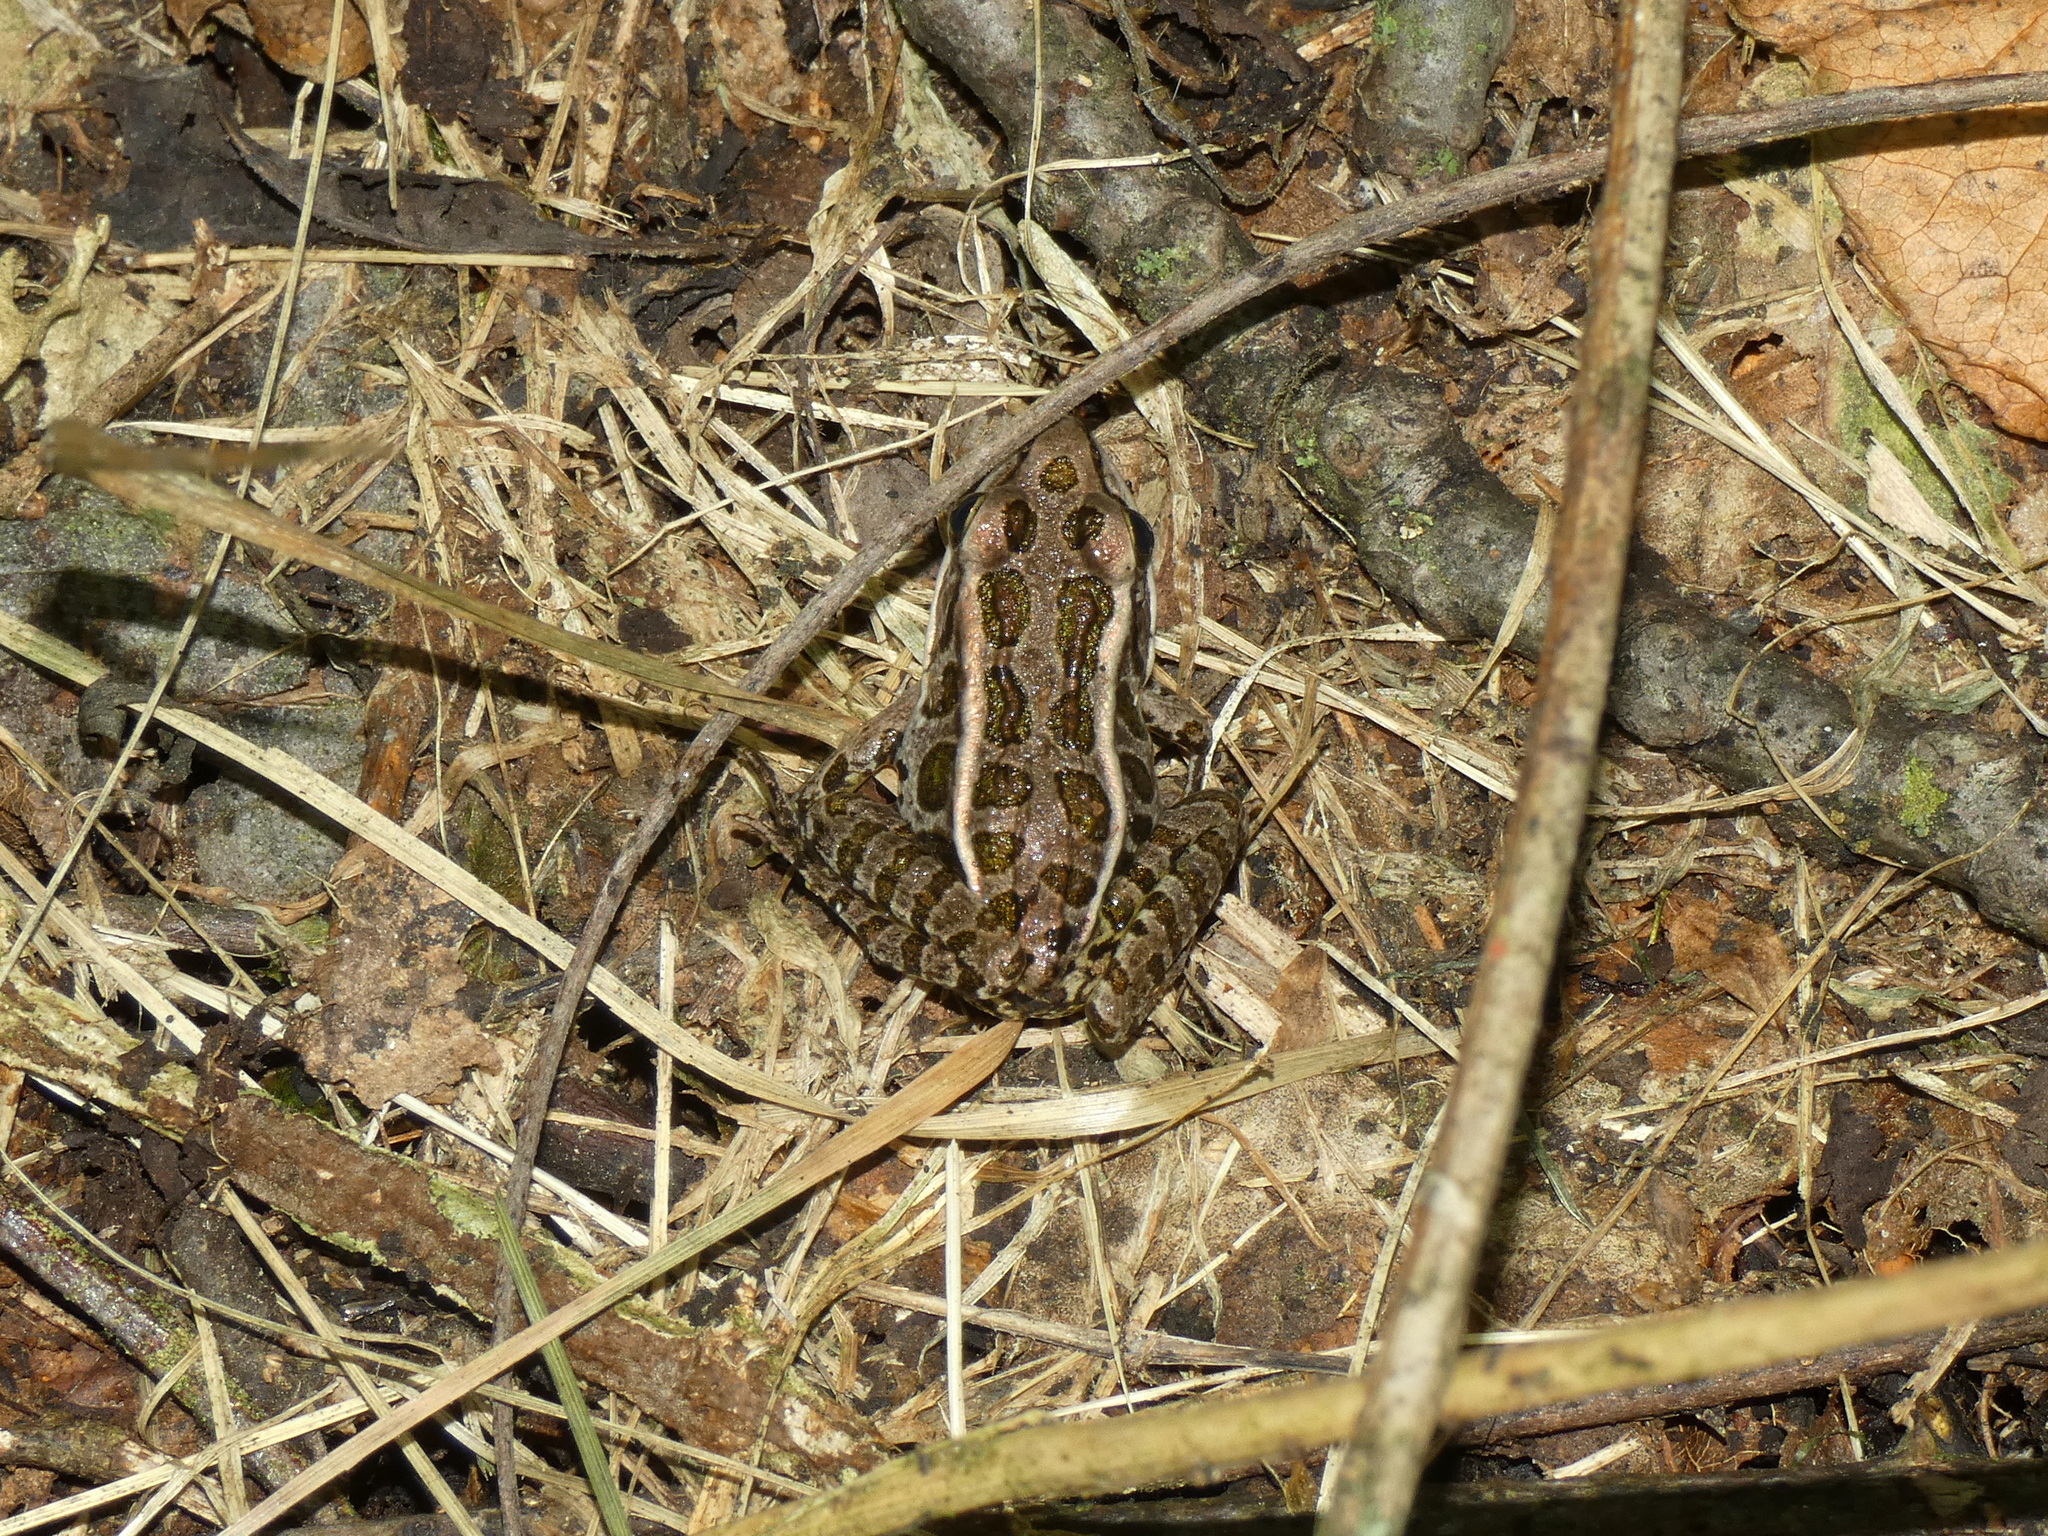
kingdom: Animalia
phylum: Chordata
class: Amphibia
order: Anura
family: Ranidae
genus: Lithobates
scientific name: Lithobates palustris
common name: Pickerel frog
